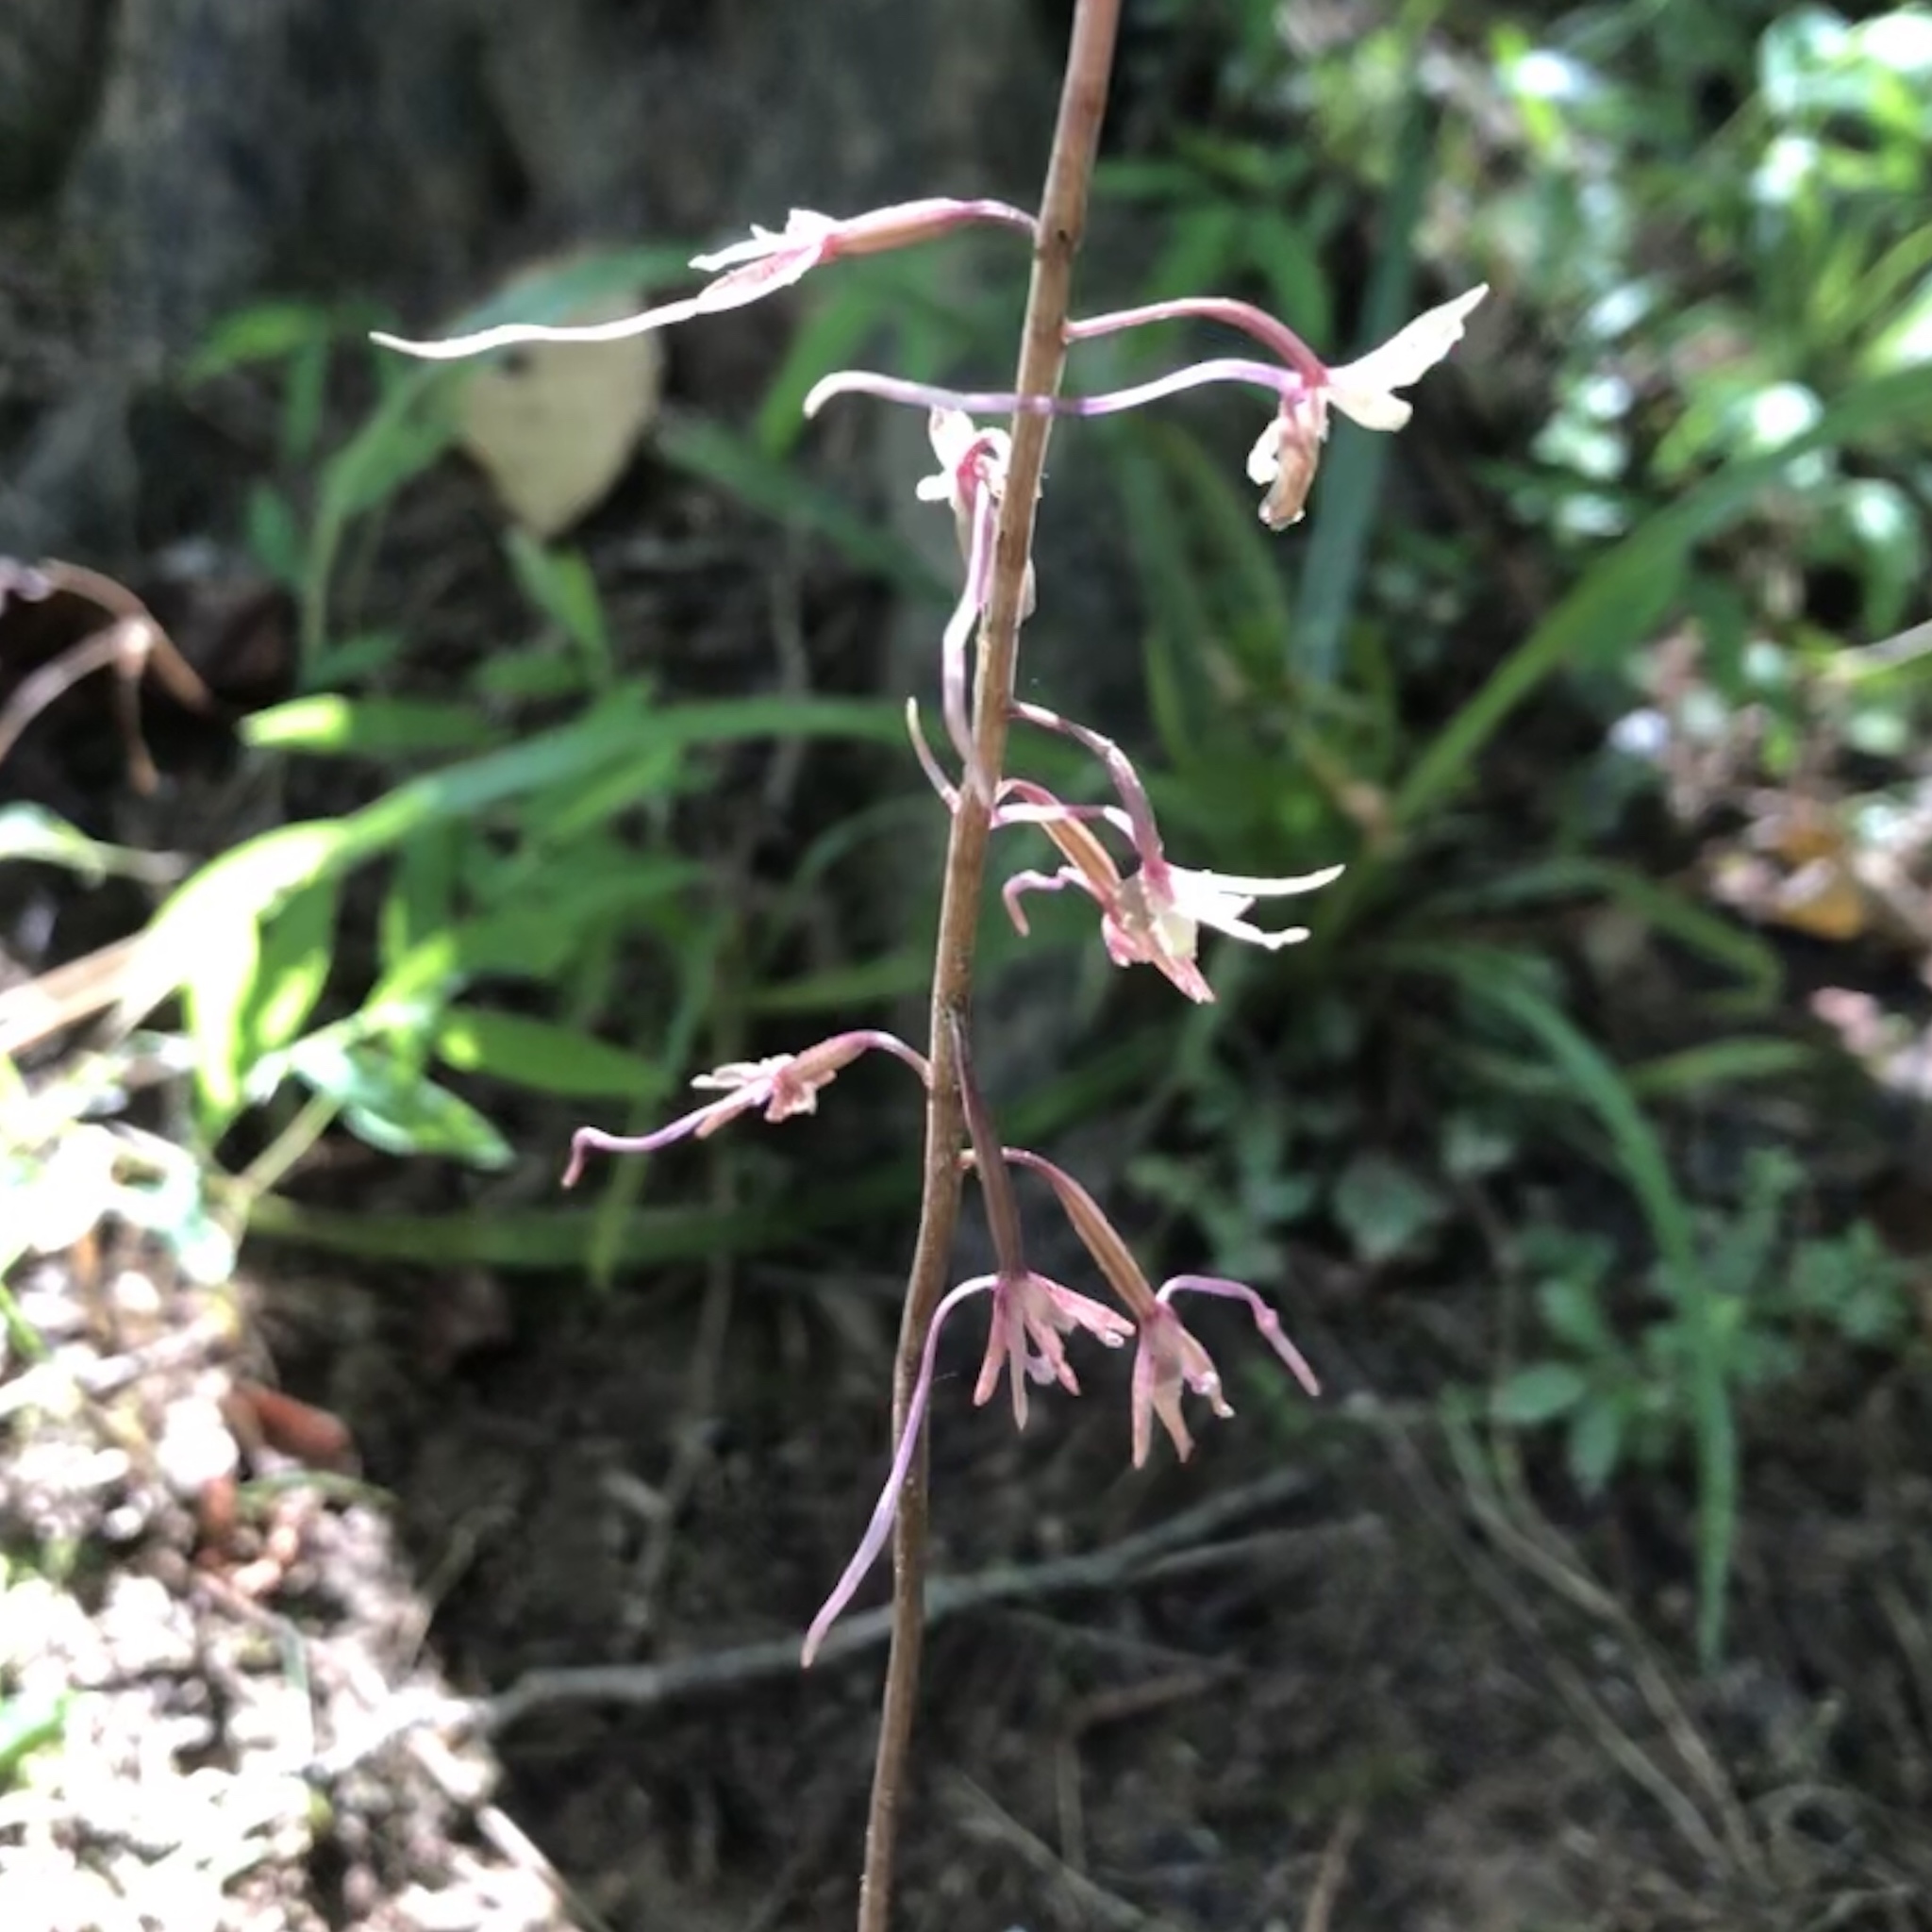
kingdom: Plantae
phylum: Tracheophyta
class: Liliopsida
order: Asparagales
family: Orchidaceae
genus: Tipularia
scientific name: Tipularia discolor
